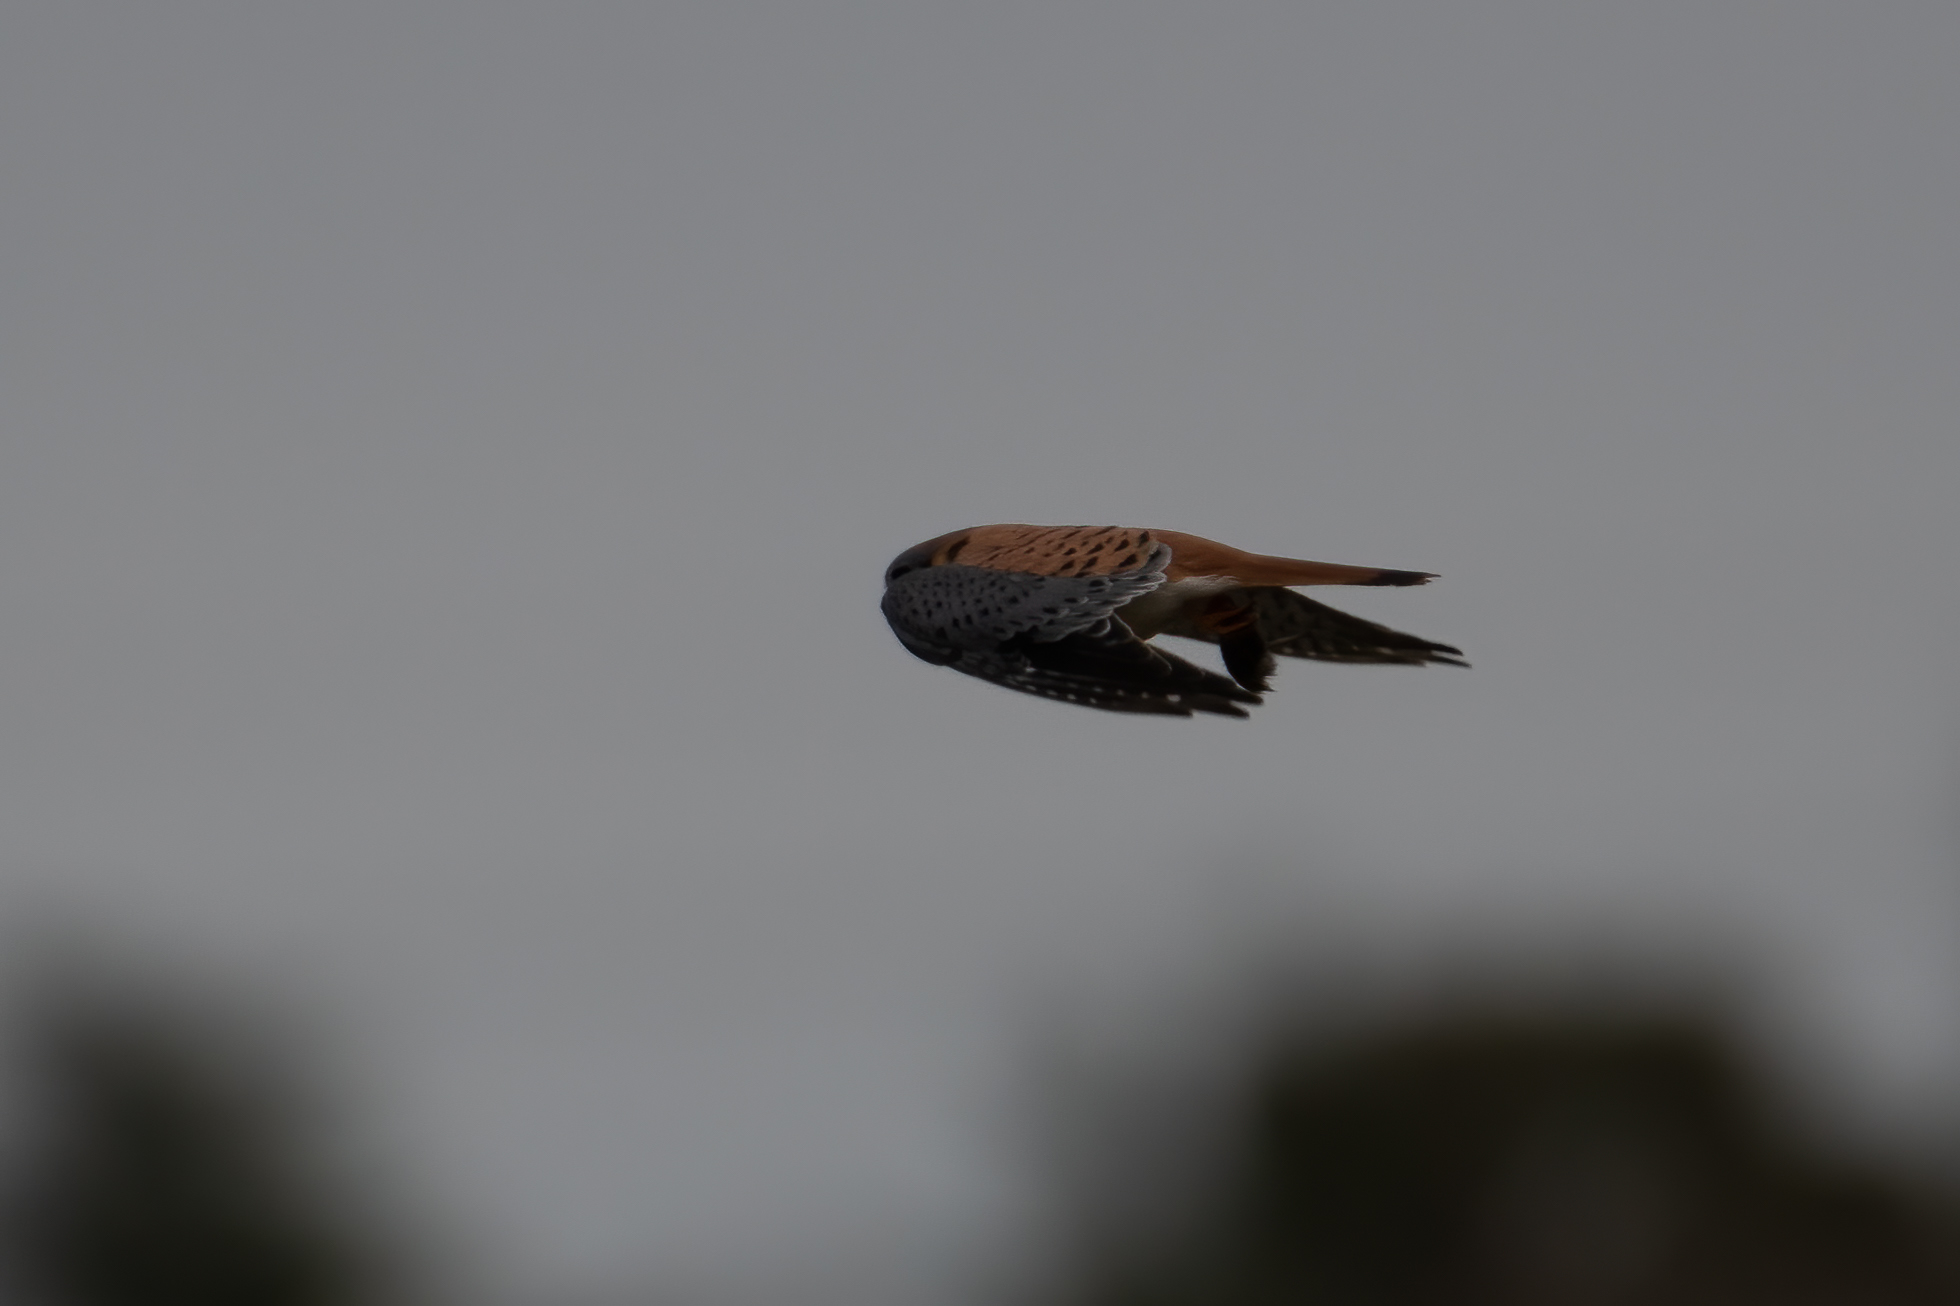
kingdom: Animalia
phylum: Chordata
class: Aves
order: Falconiformes
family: Falconidae
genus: Falco
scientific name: Falco sparverius
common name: American kestrel
